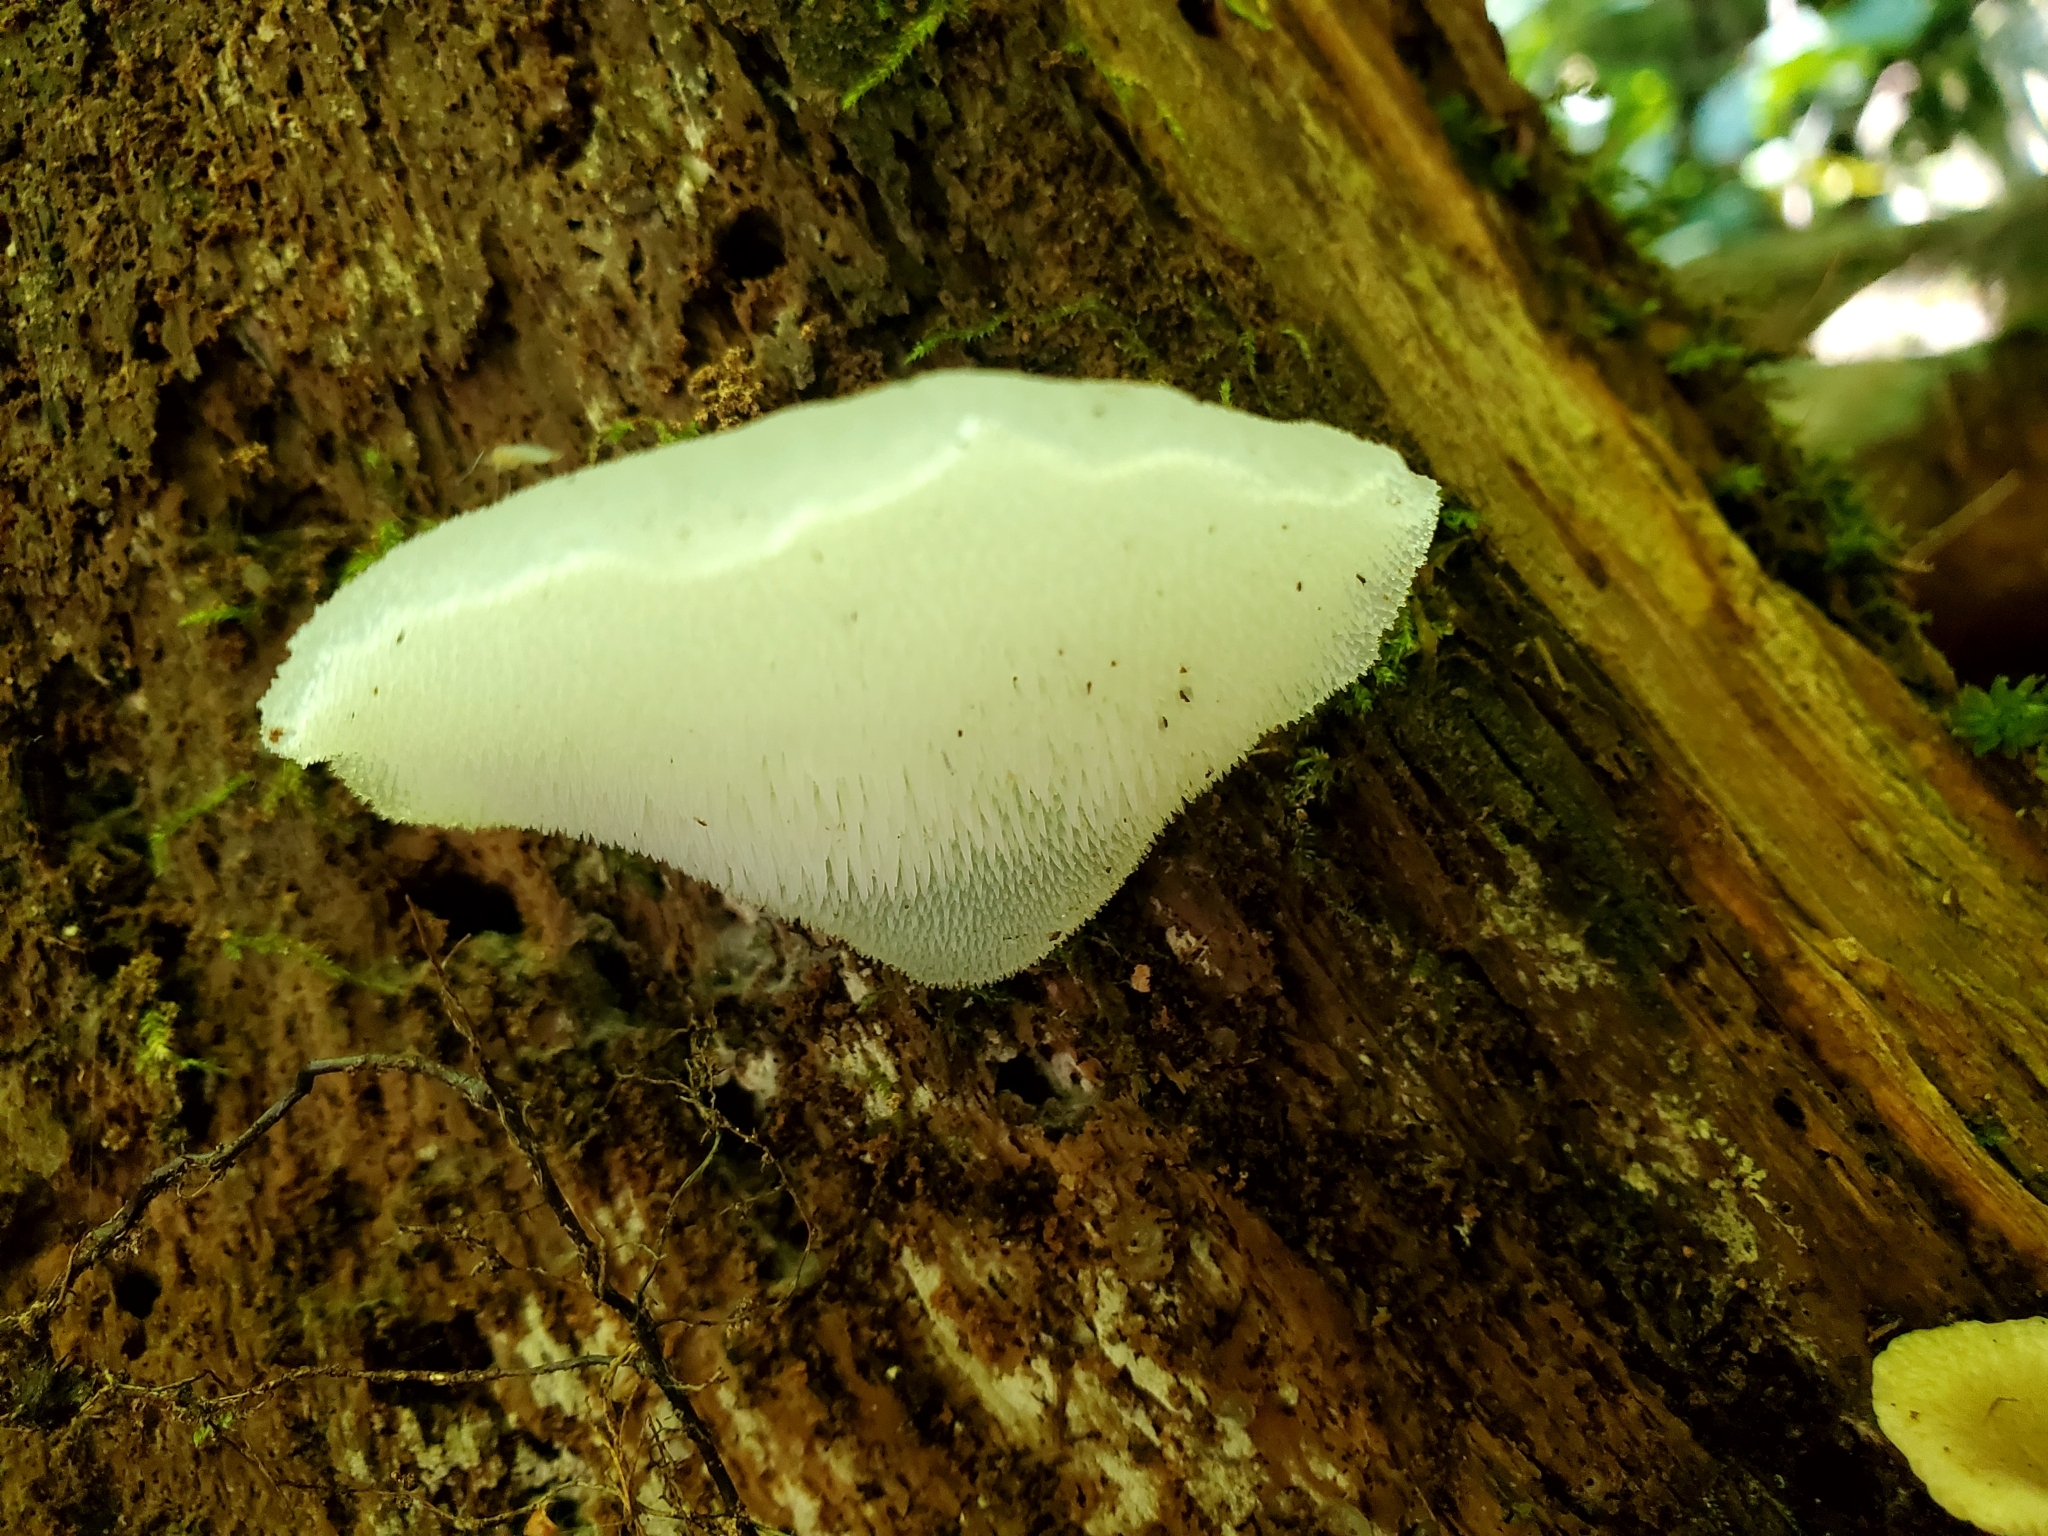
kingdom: Fungi
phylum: Basidiomycota
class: Agaricomycetes
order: Auriculariales
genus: Pseudohydnum
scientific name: Pseudohydnum gelatinosum
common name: Jelly tongue
